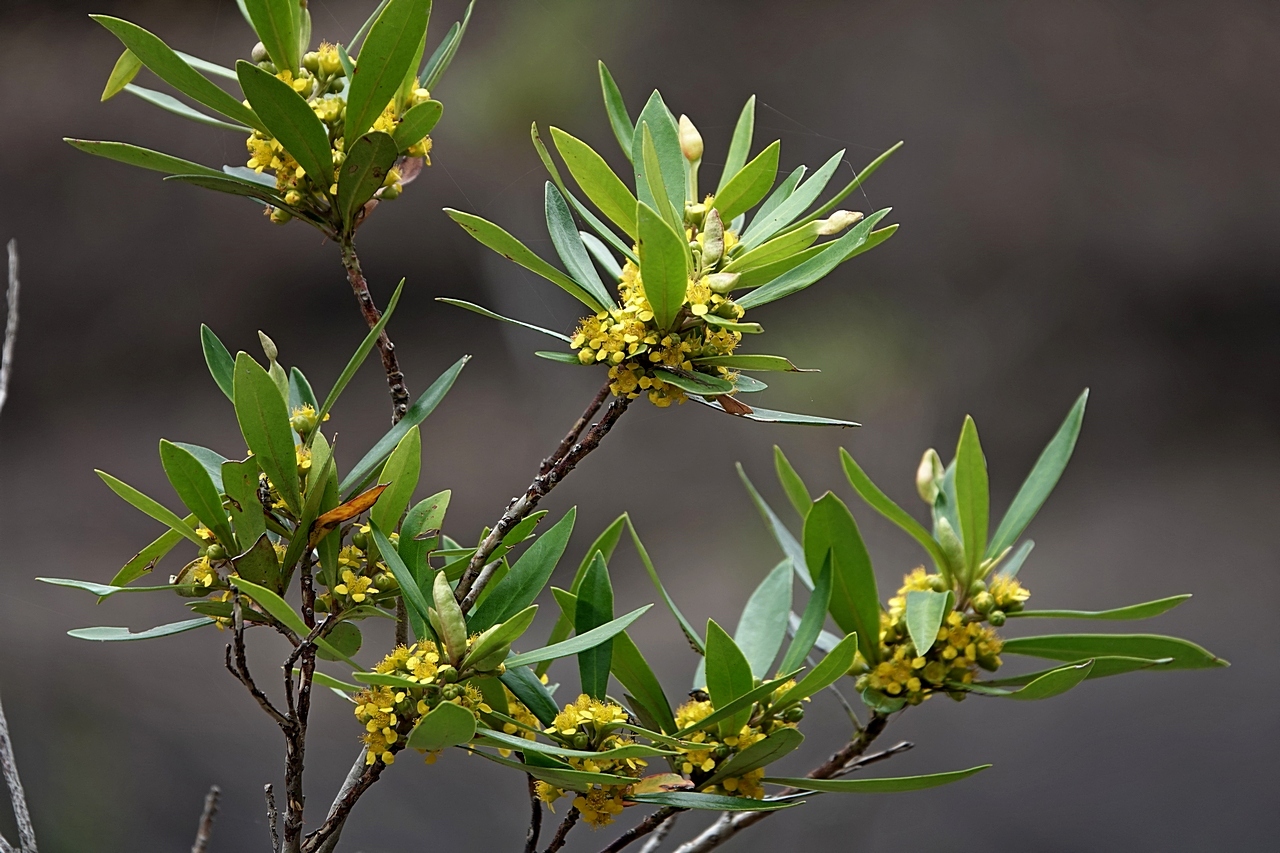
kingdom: Plantae
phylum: Tracheophyta
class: Magnoliopsida
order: Myrtales
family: Myrtaceae
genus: Tristaniopsis
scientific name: Tristaniopsis laurina
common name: Water-gum
